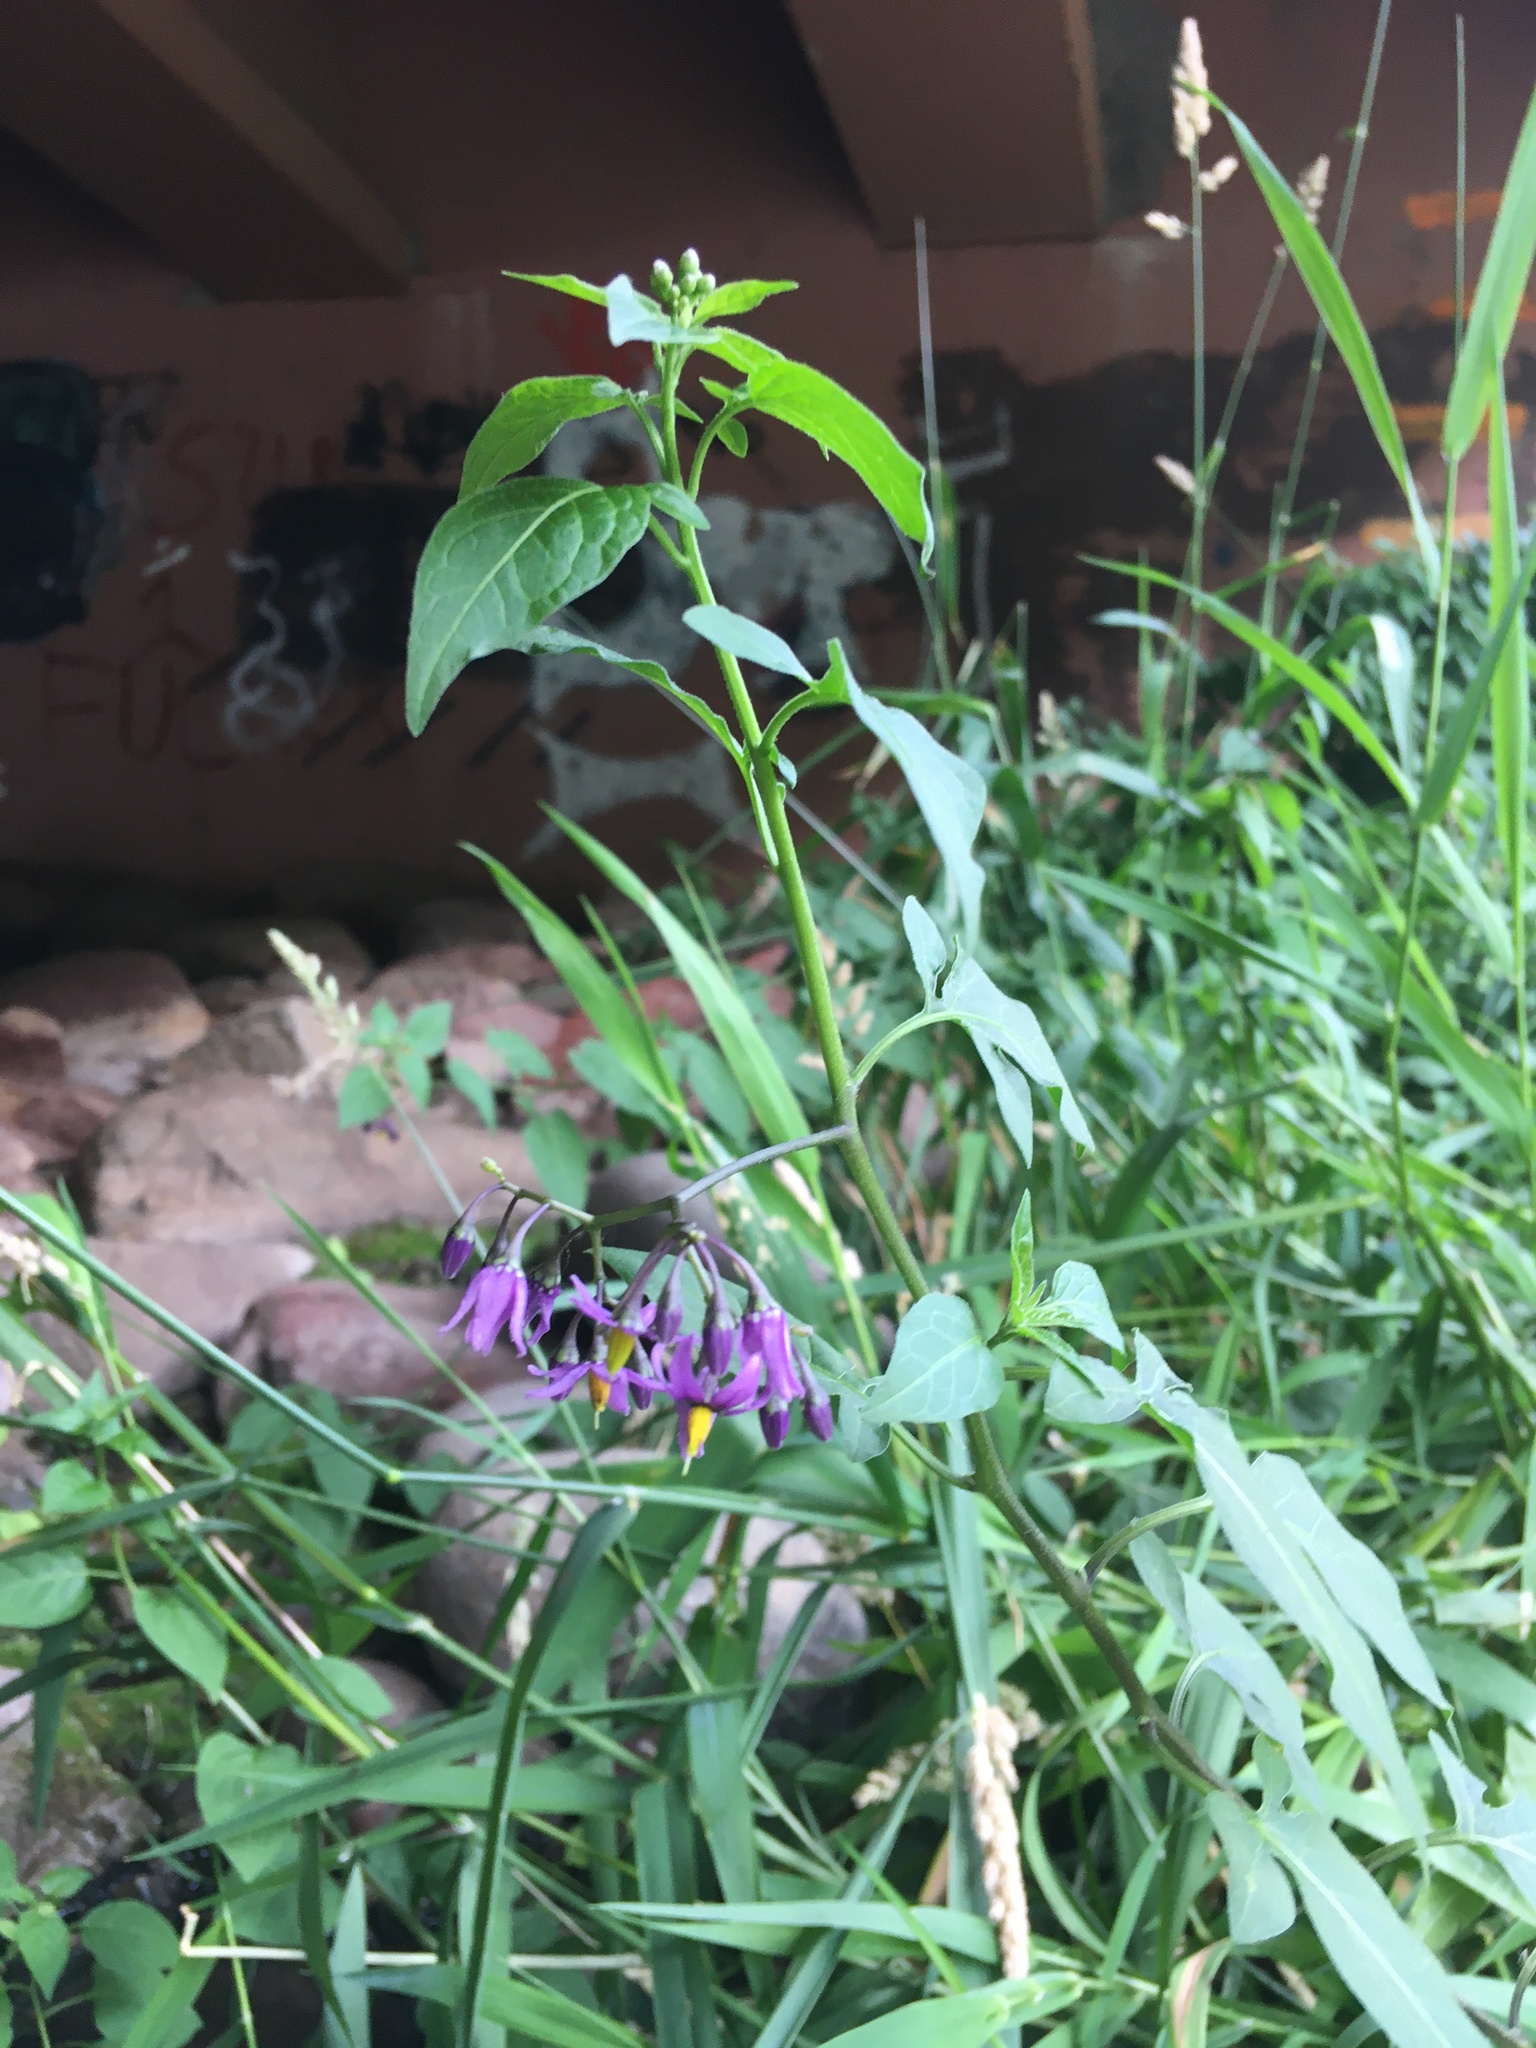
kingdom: Plantae
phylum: Tracheophyta
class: Magnoliopsida
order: Solanales
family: Solanaceae
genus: Solanum
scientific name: Solanum dulcamara
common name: Climbing nightshade
